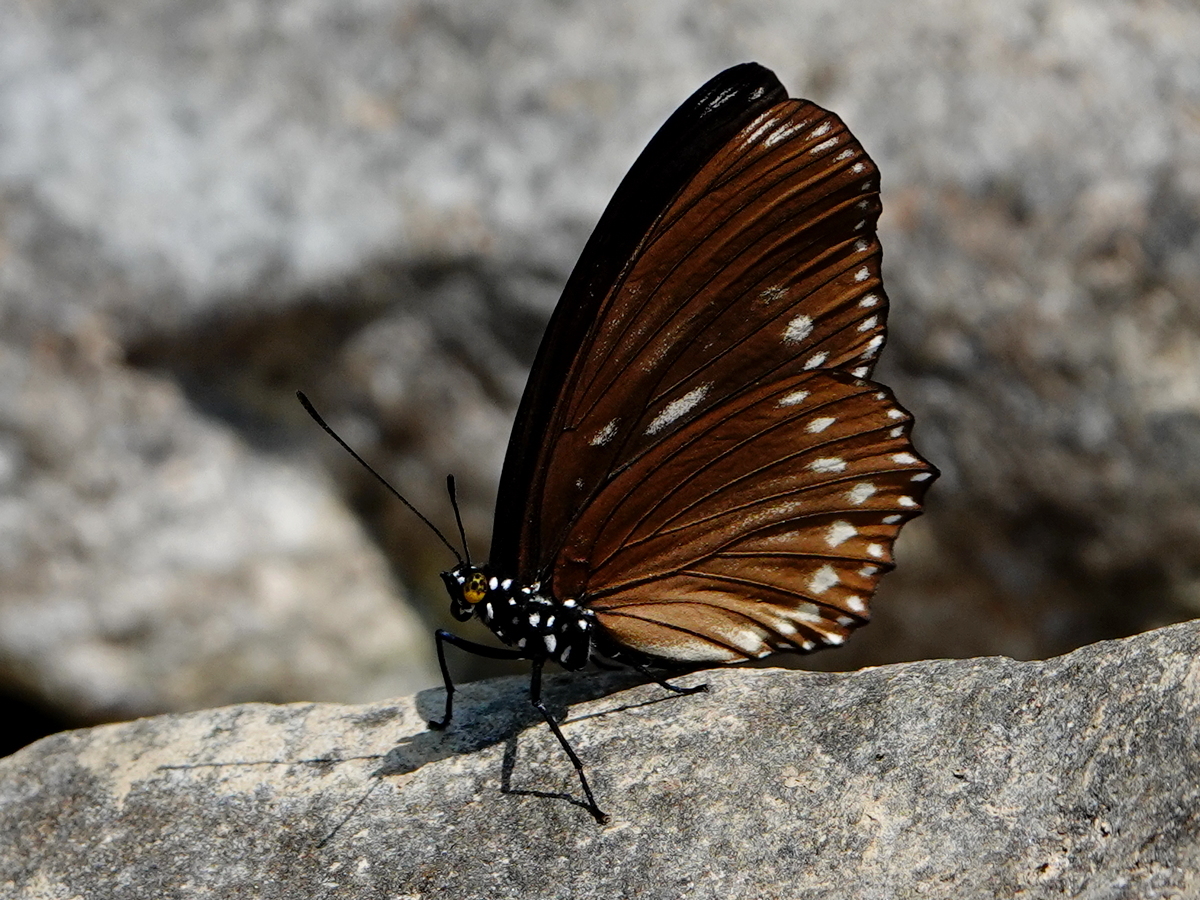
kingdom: Animalia
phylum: Arthropoda
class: Insecta
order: Lepidoptera
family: Nymphalidae
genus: Euripus
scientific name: Euripus nyctelius
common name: Courtesan
